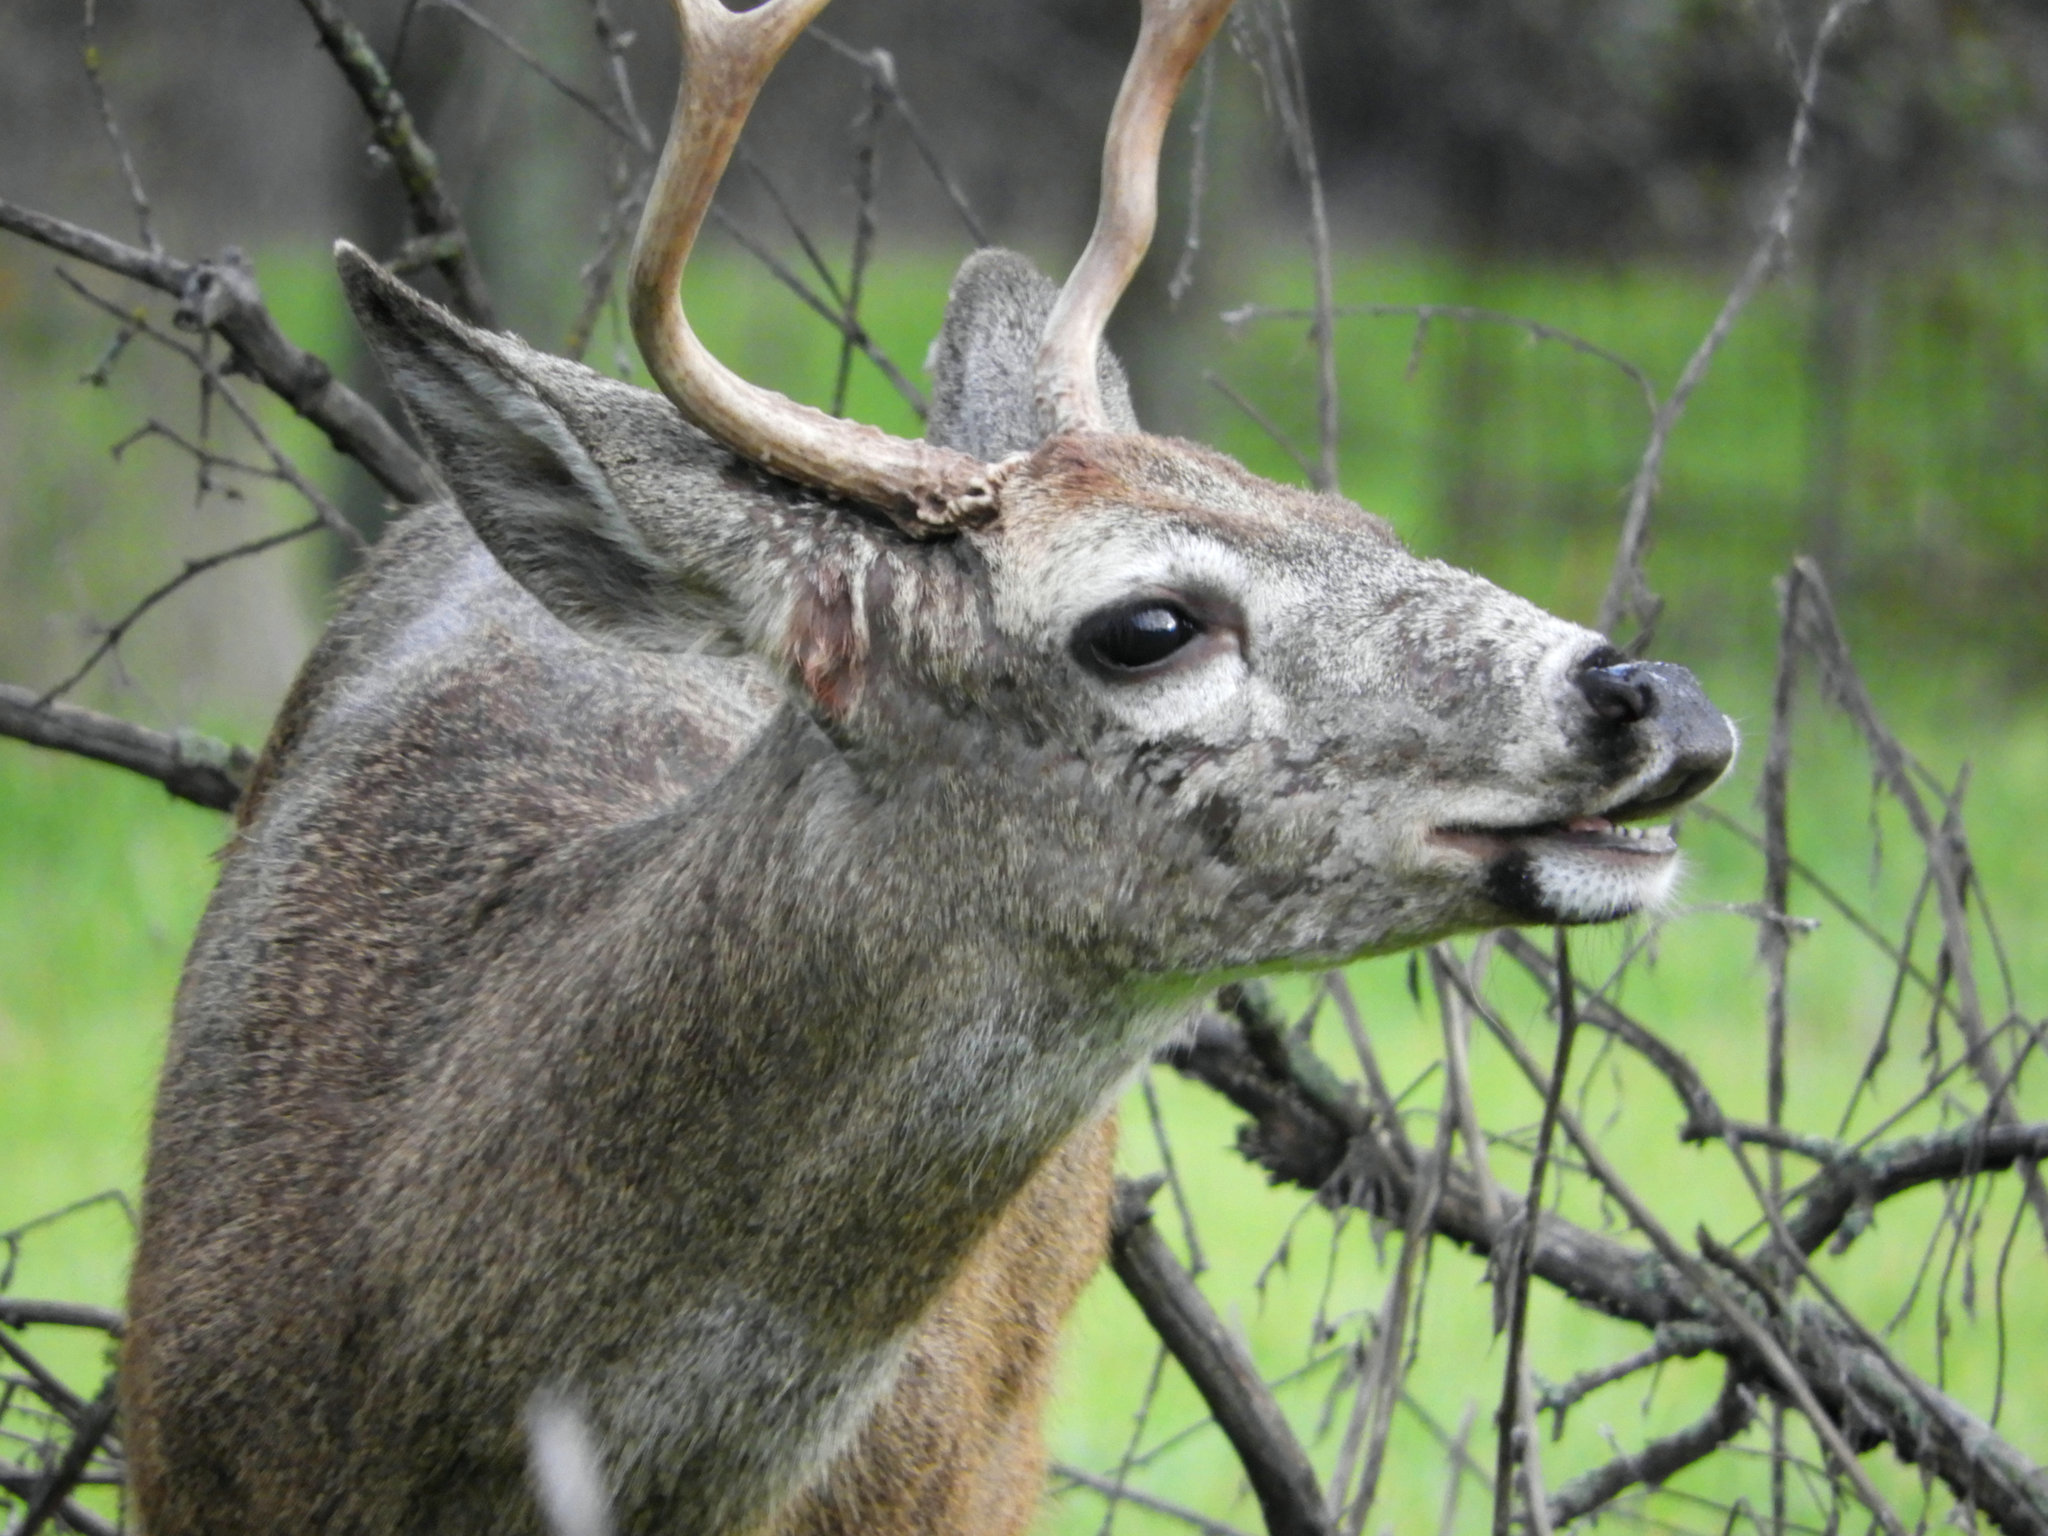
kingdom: Animalia
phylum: Chordata
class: Mammalia
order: Artiodactyla
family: Cervidae
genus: Odocoileus
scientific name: Odocoileus hemionus
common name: Mule deer
